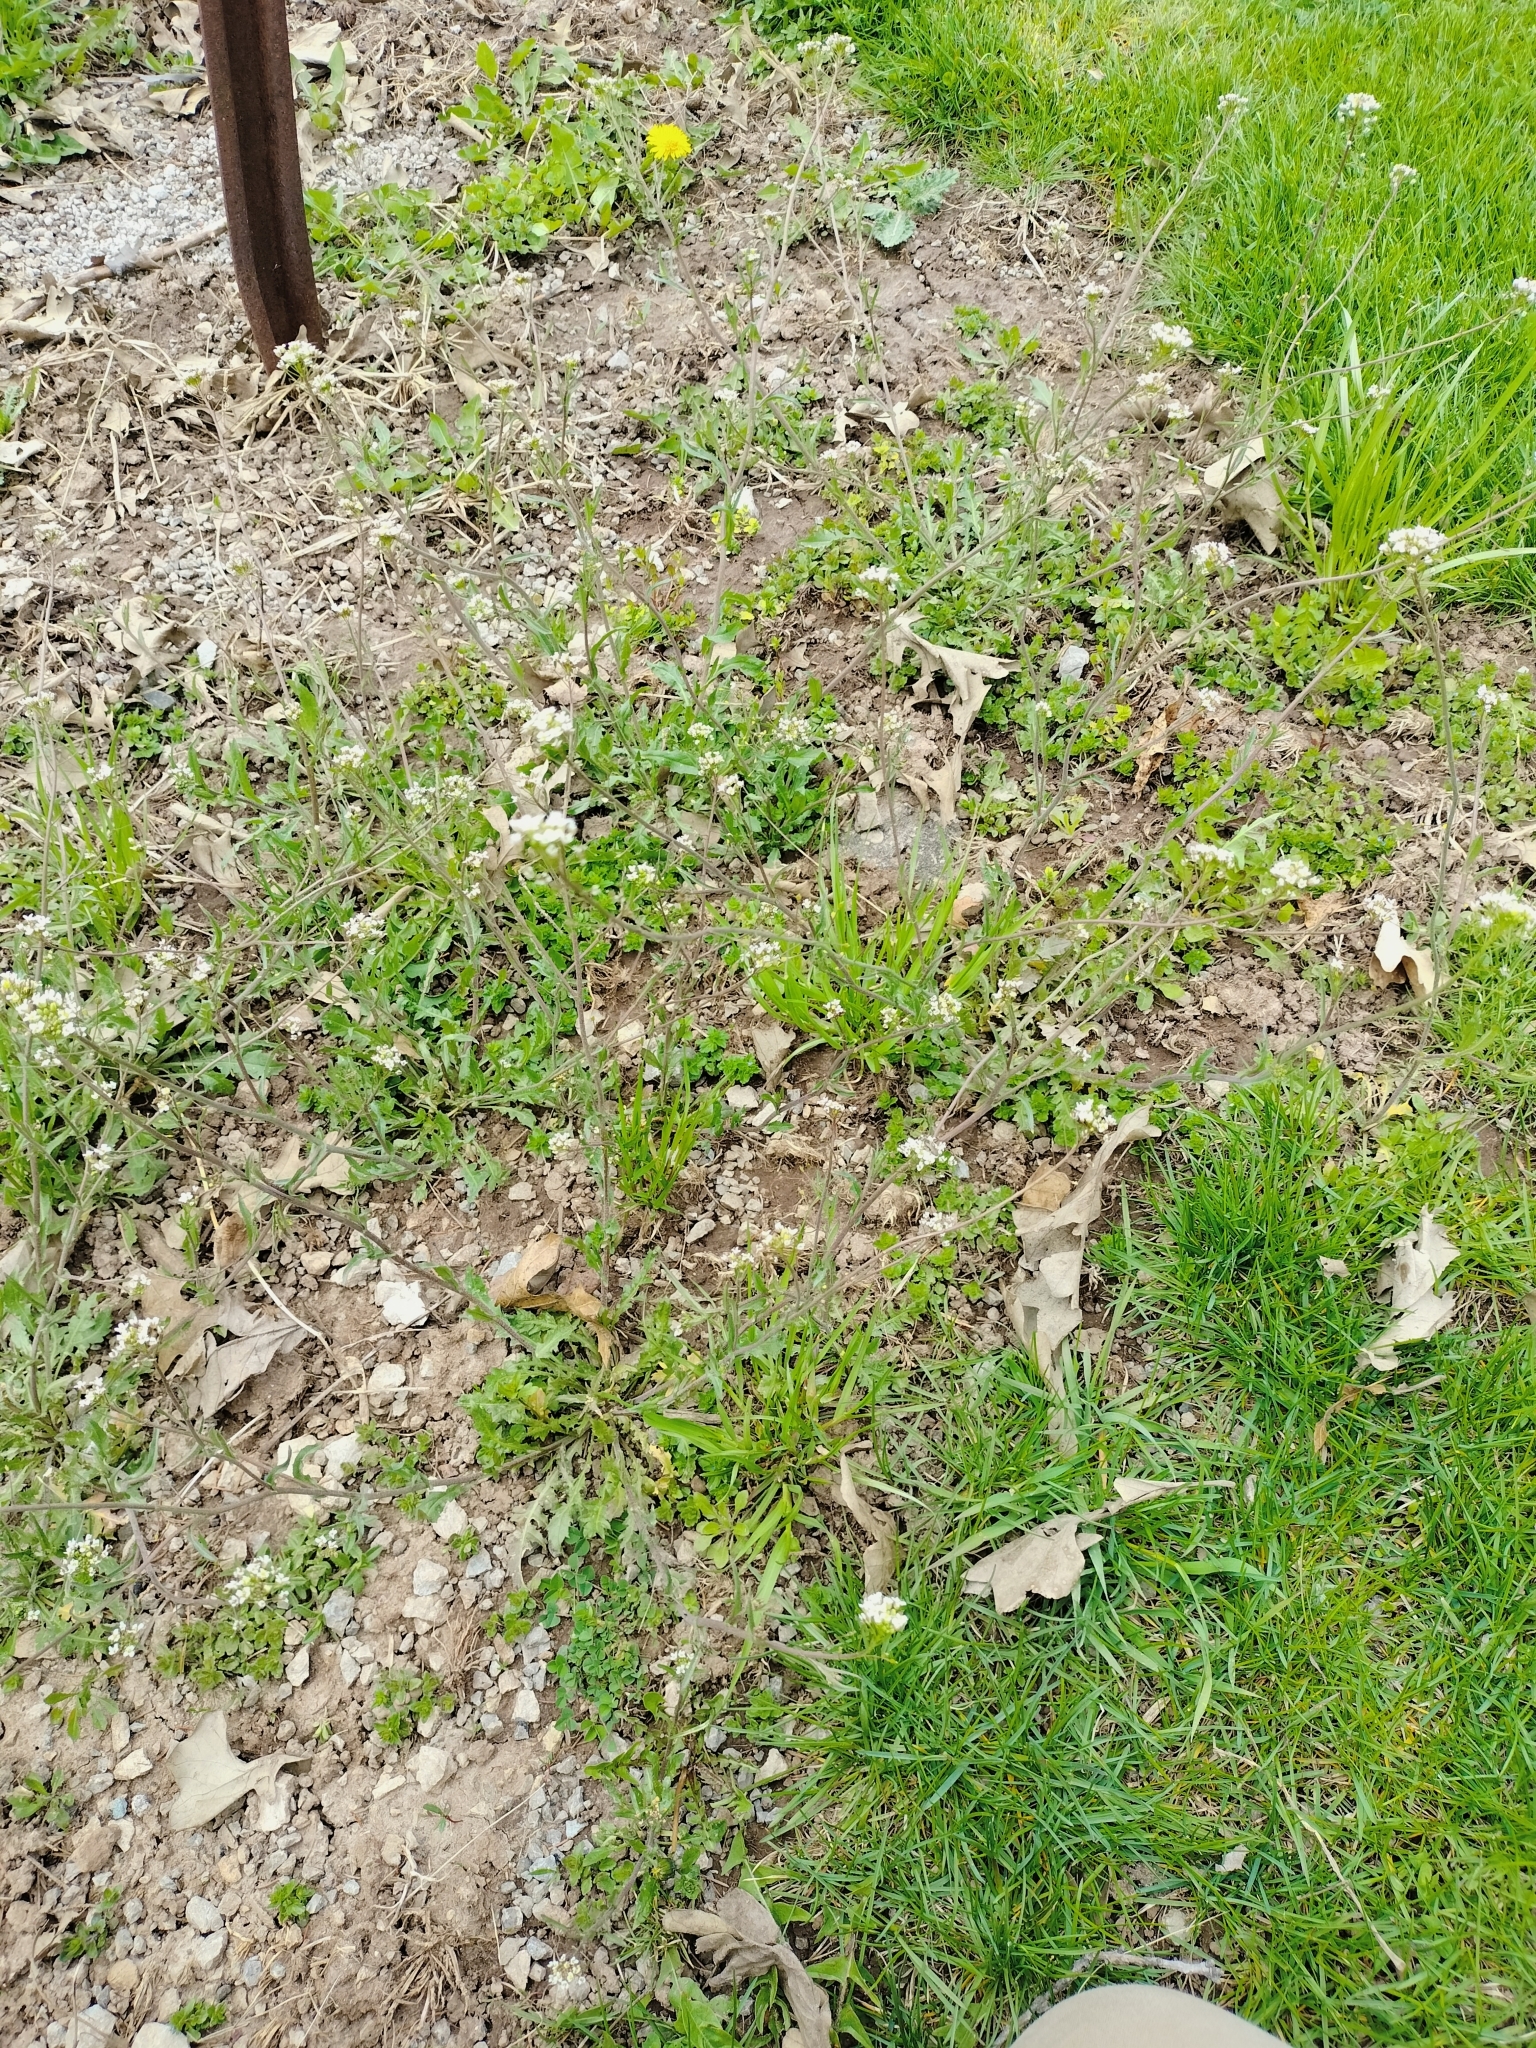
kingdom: Plantae
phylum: Tracheophyta
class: Magnoliopsida
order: Brassicales
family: Brassicaceae
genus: Capsella
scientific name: Capsella bursa-pastoris
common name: Shepherd's purse
